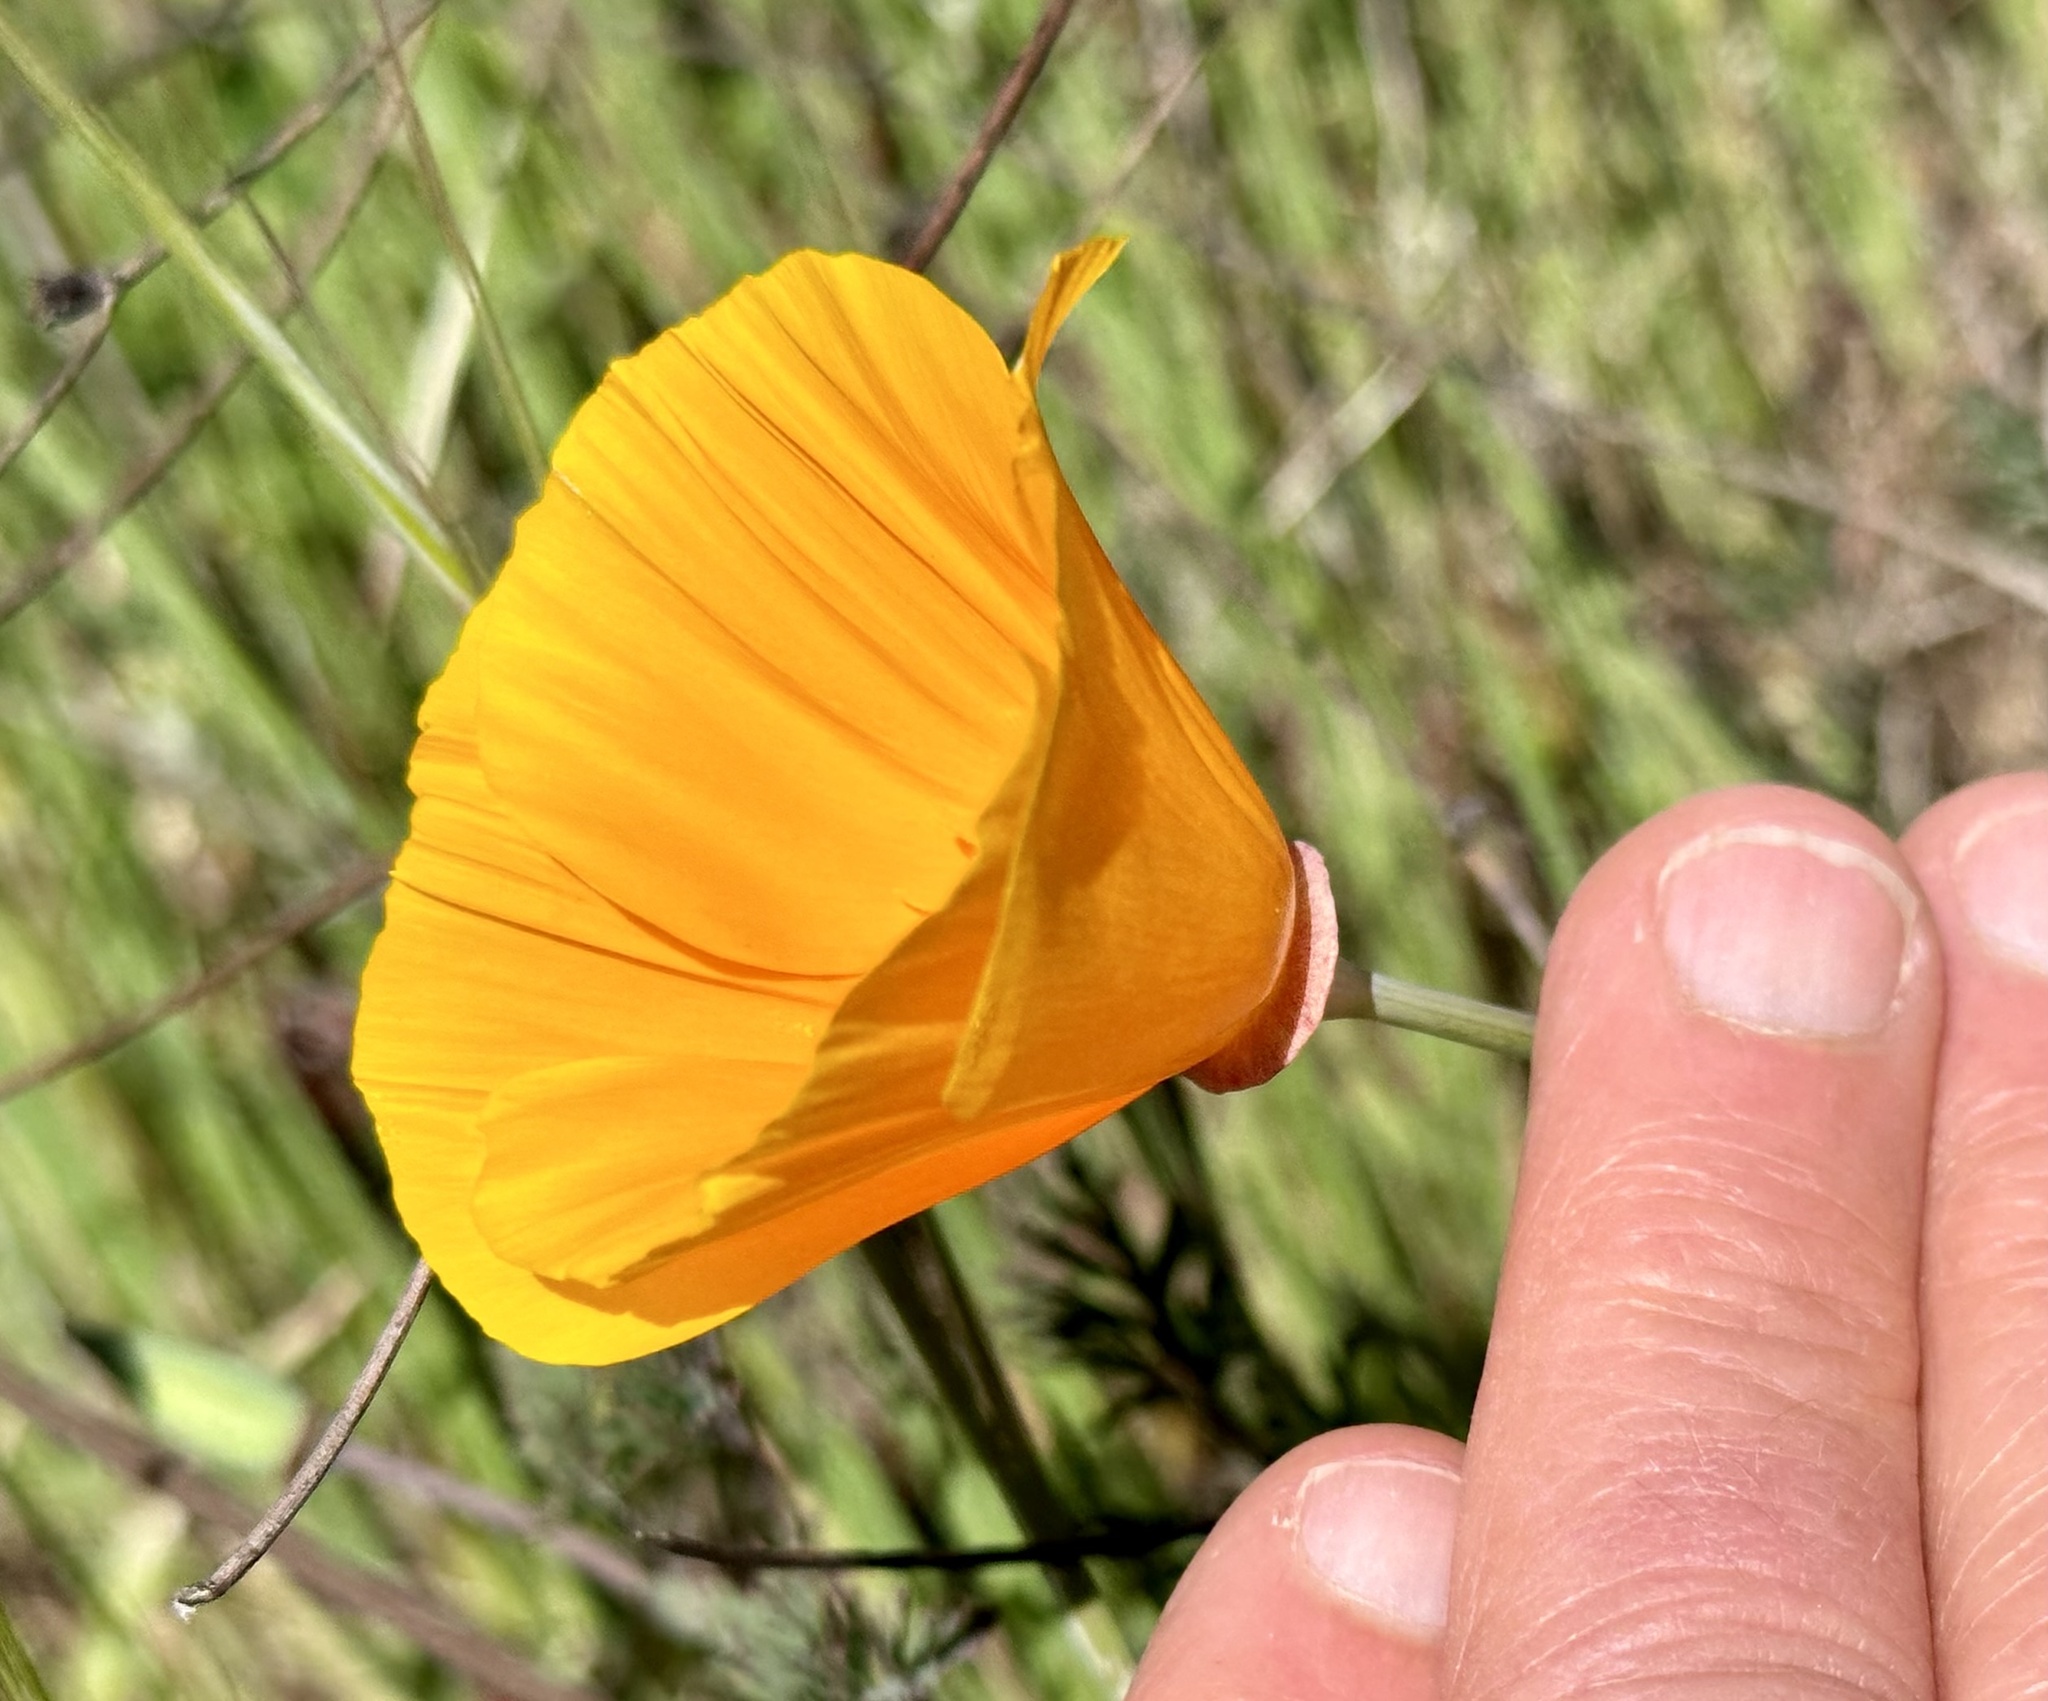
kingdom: Plantae
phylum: Tracheophyta
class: Magnoliopsida
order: Ranunculales
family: Papaveraceae
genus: Eschscholzia
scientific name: Eschscholzia californica
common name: California poppy
